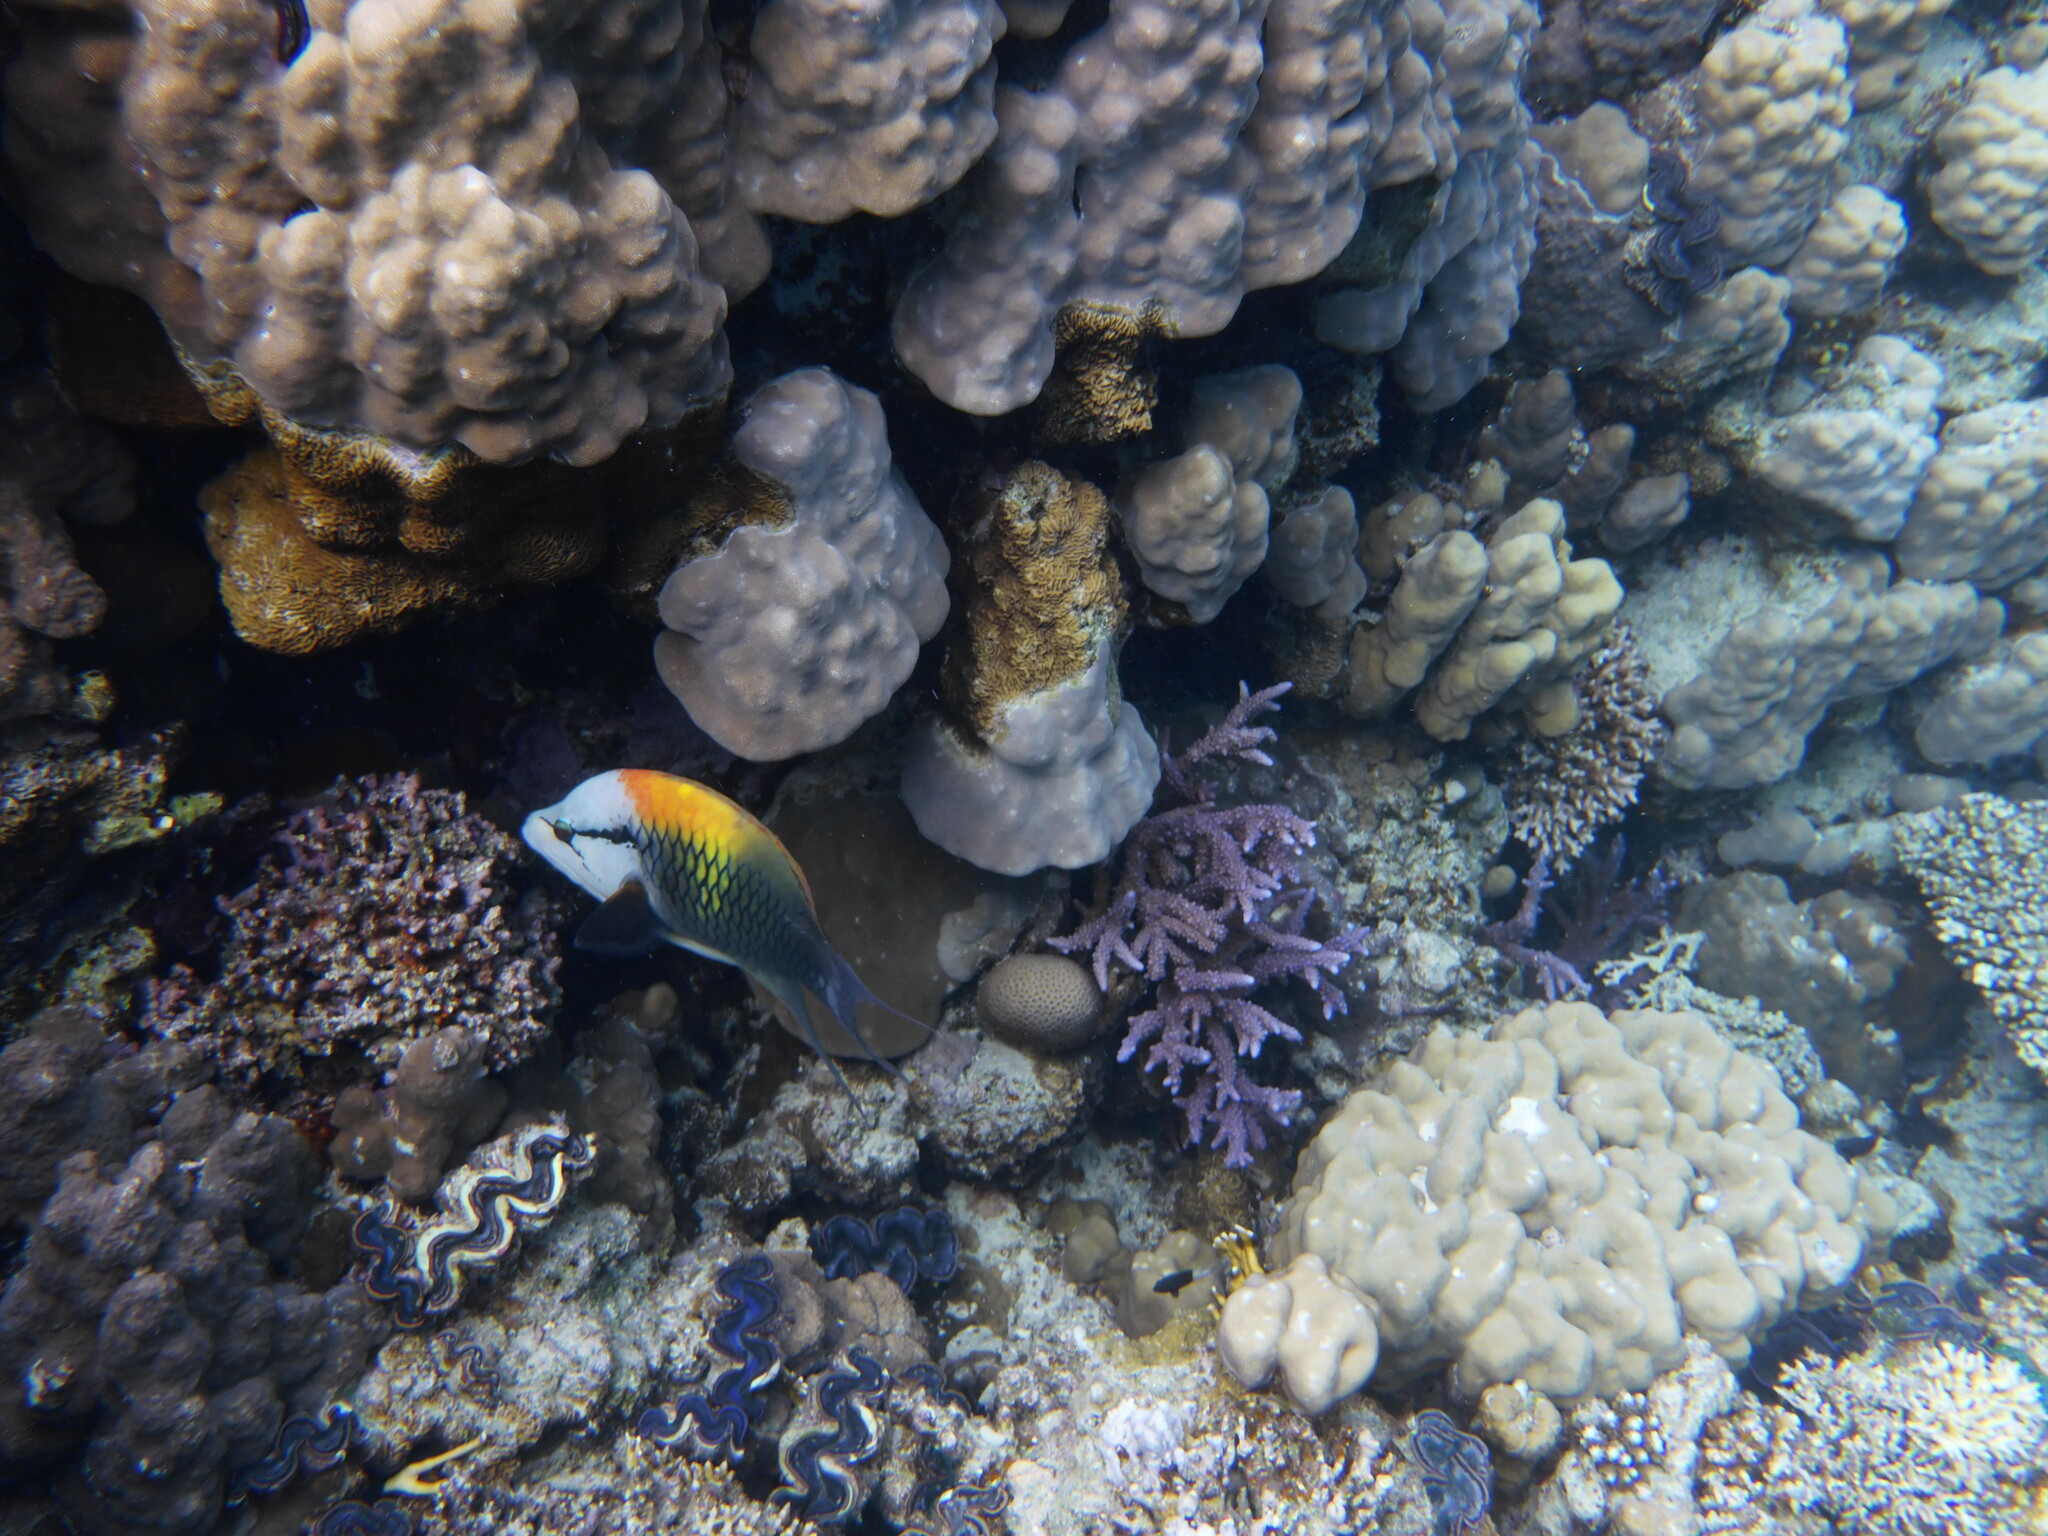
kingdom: Animalia
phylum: Chordata
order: Perciformes
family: Labridae
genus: Epibulus
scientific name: Epibulus insidiator
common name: Slingjaw wrasse
